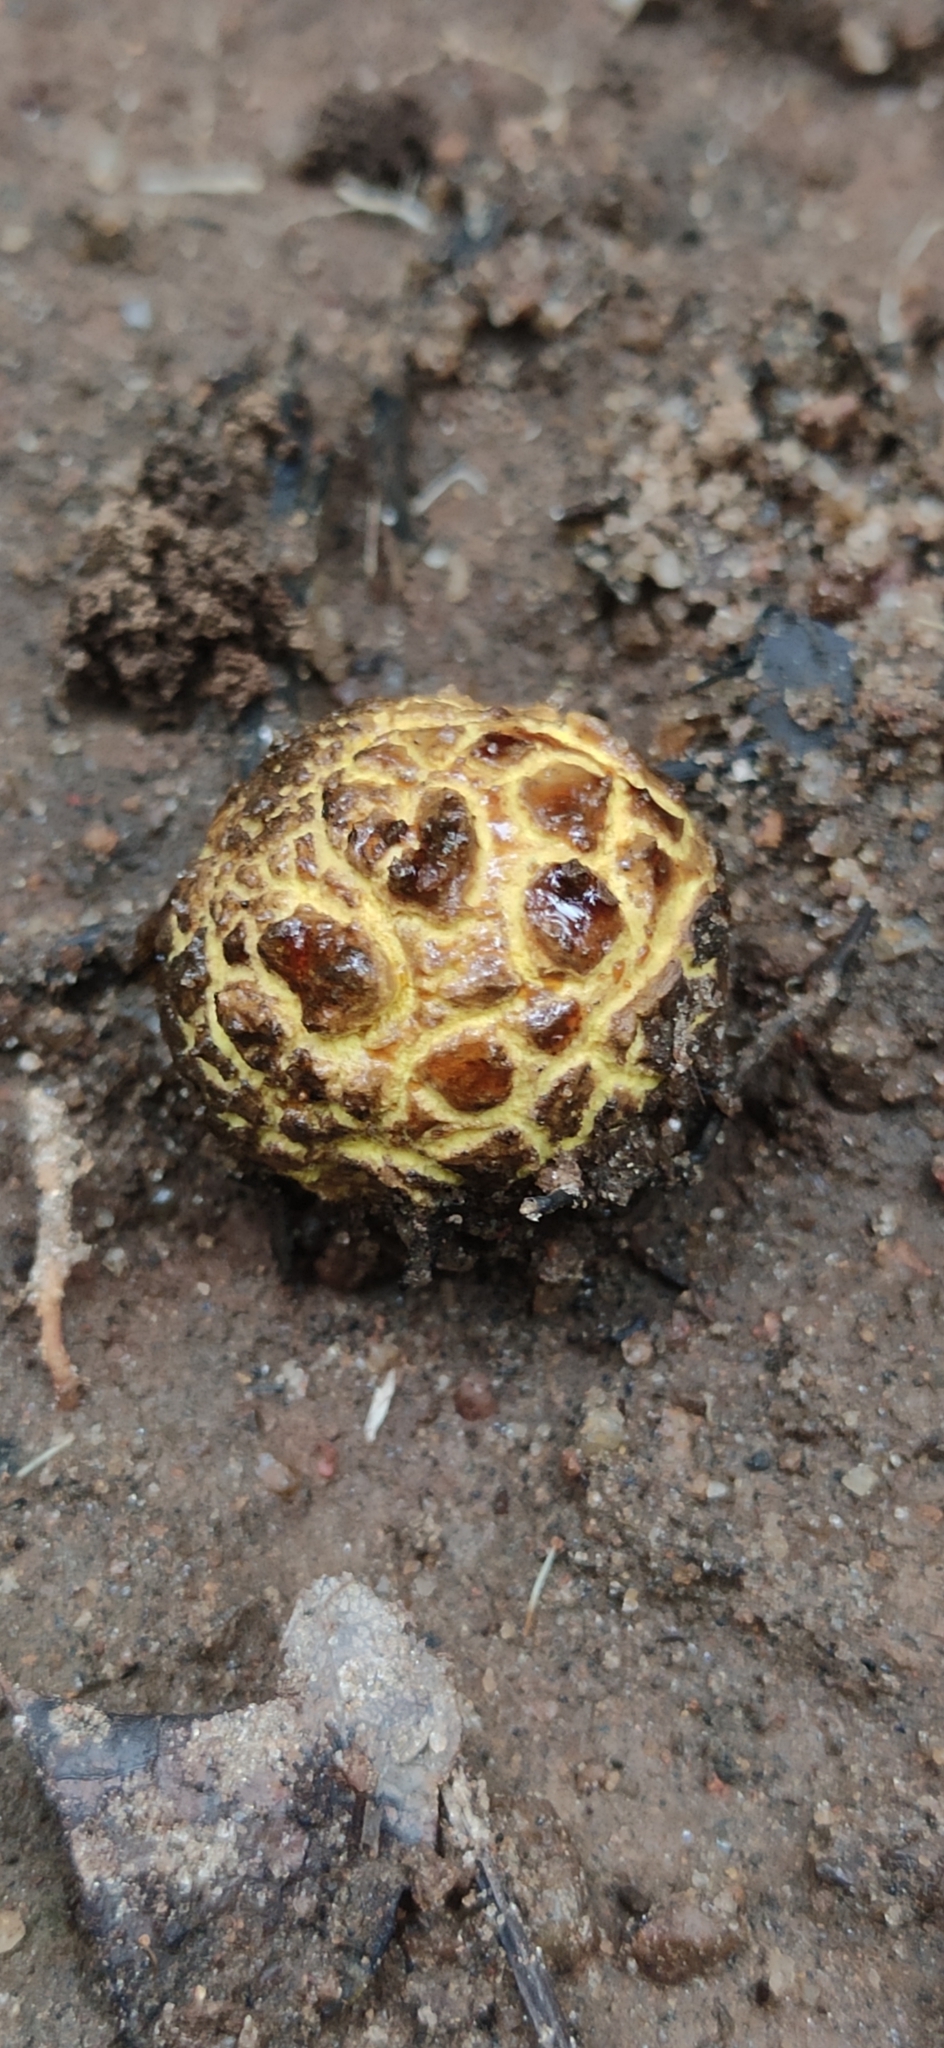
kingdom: Fungi
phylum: Basidiomycota
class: Agaricomycetes
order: Boletales
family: Sclerodermataceae
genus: Scleroderma
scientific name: Scleroderma citrinum
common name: Common earthball
